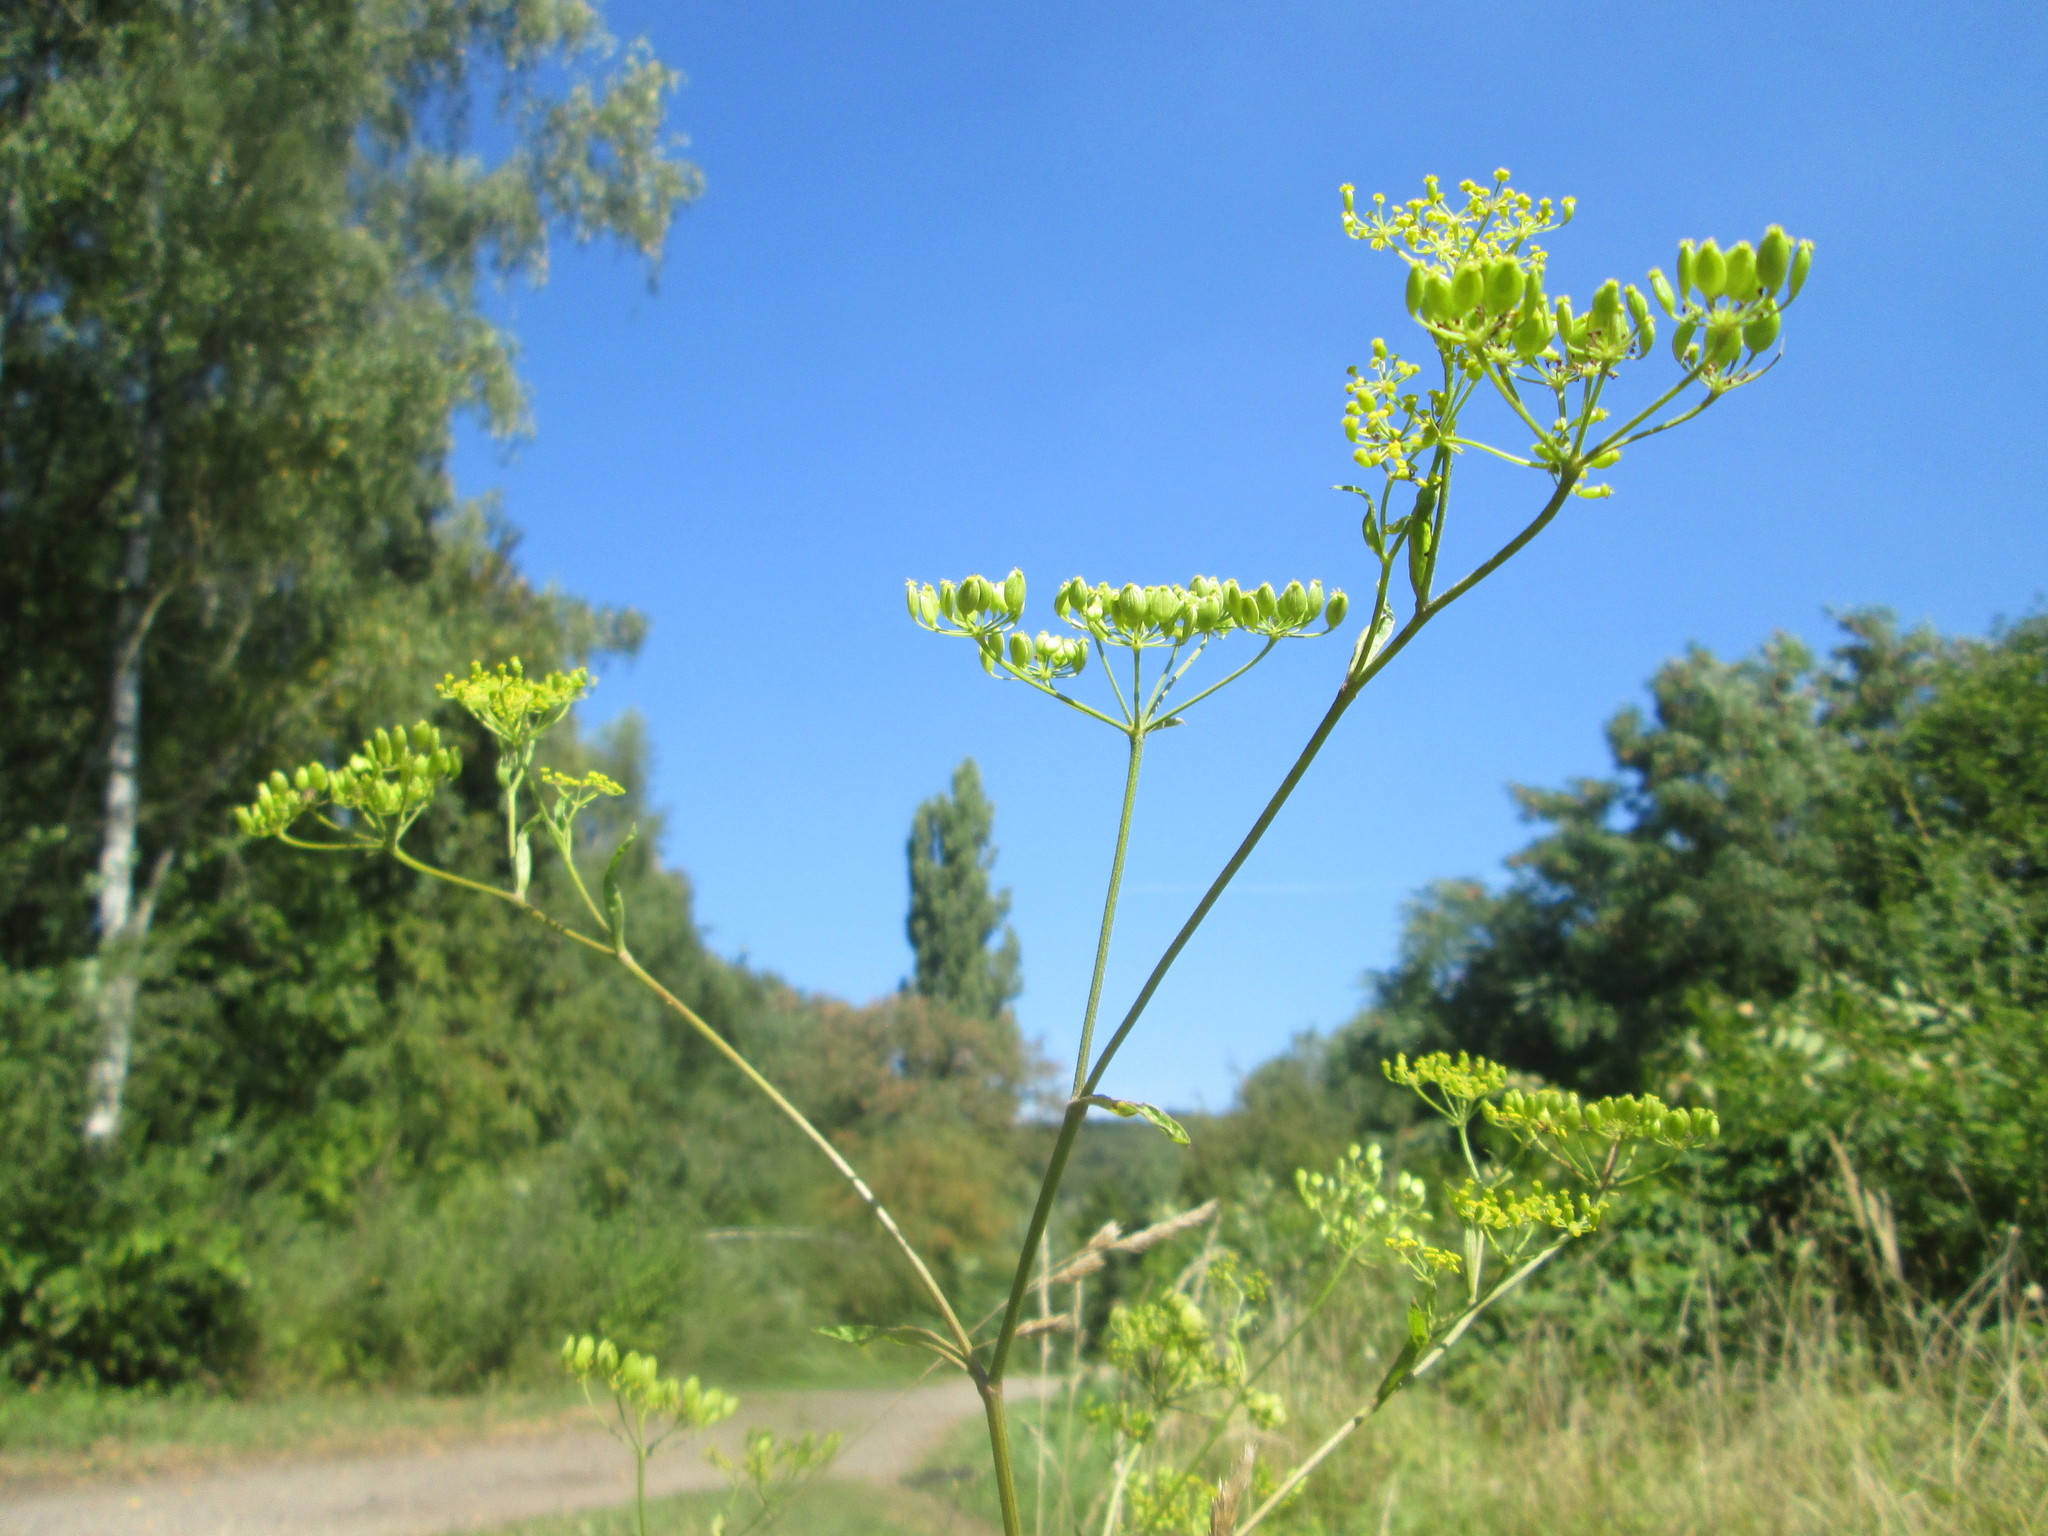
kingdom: Plantae
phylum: Tracheophyta
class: Magnoliopsida
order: Apiales
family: Apiaceae
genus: Pastinaca
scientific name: Pastinaca sativa
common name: Wild parsnip
